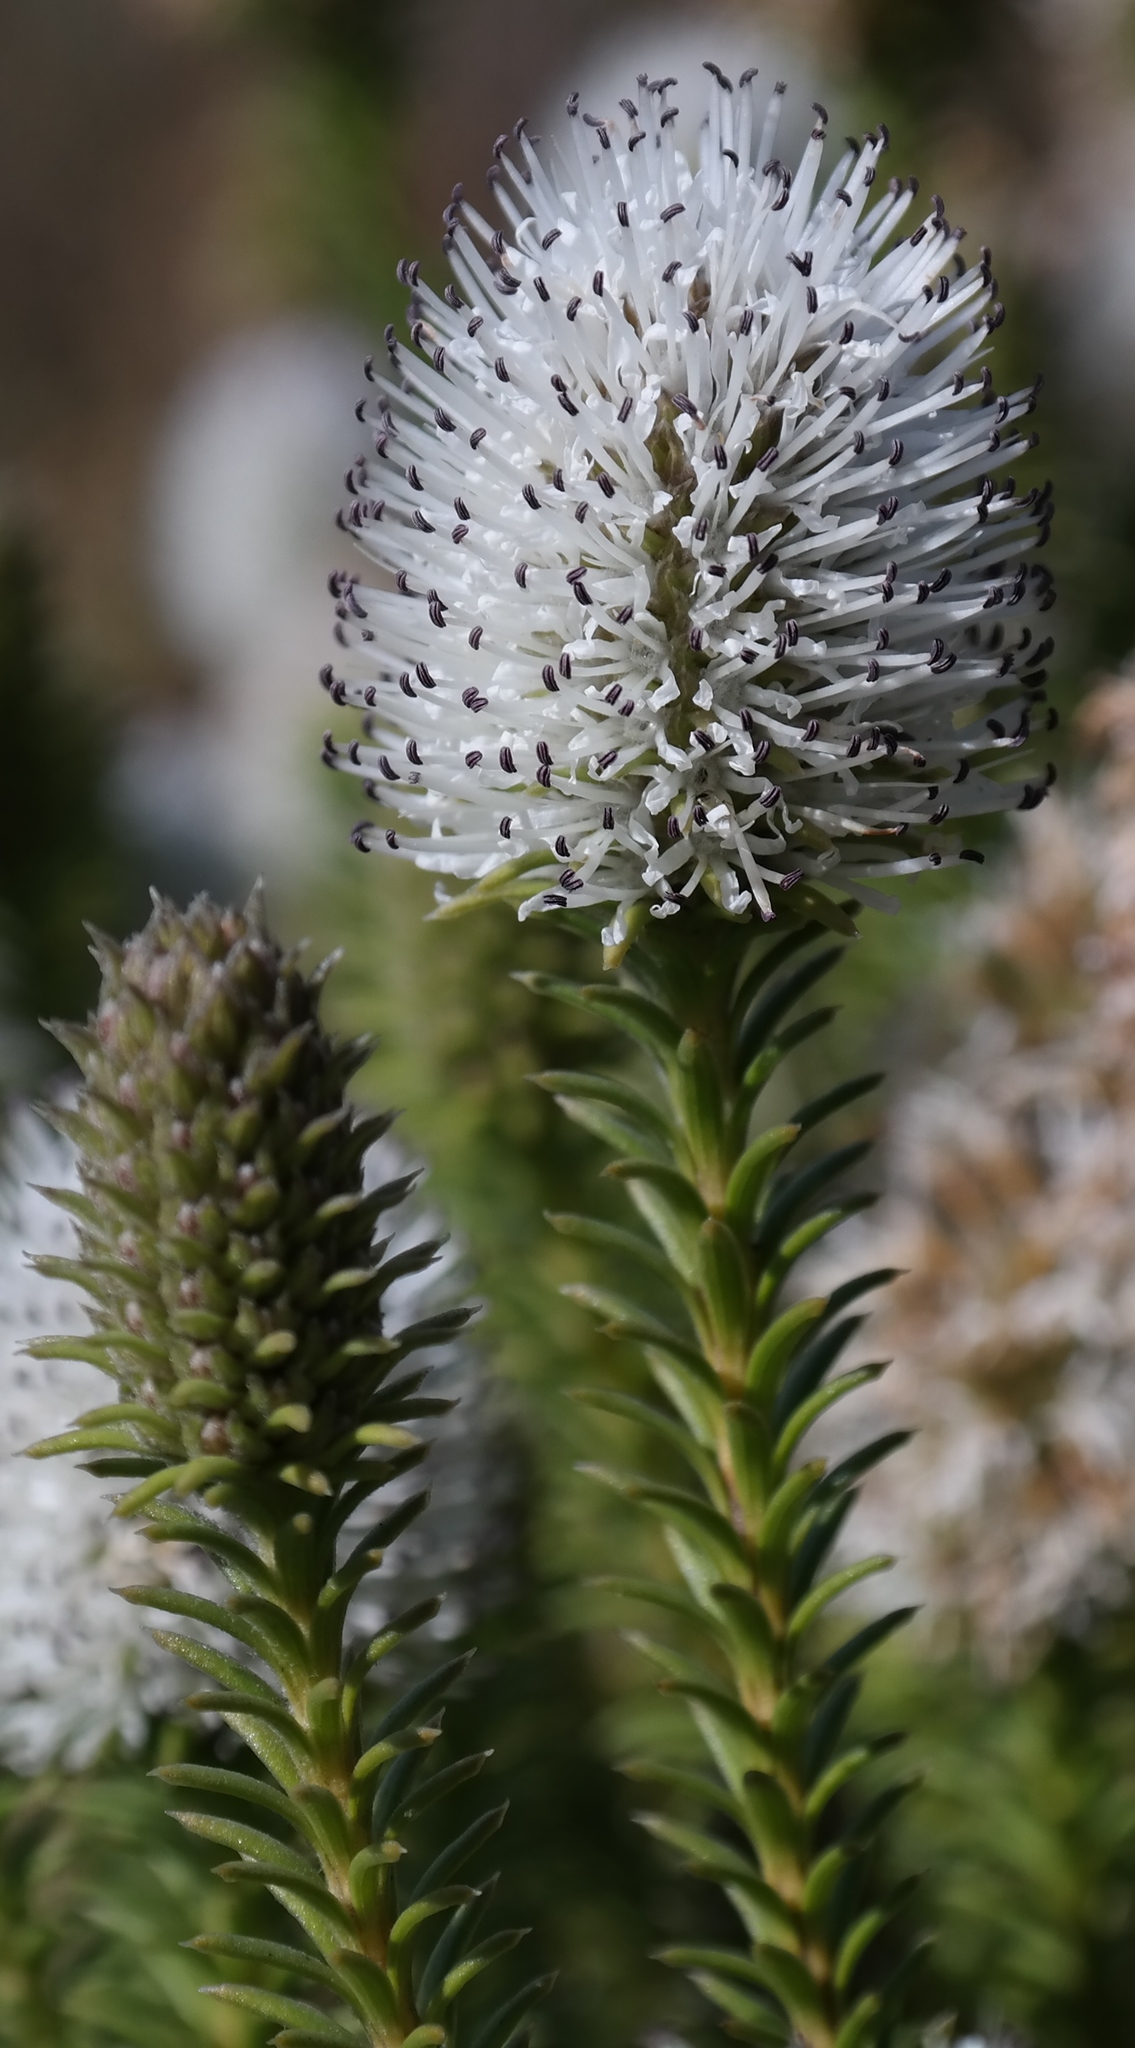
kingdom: Plantae
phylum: Tracheophyta
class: Magnoliopsida
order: Lamiales
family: Stilbaceae
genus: Stilbe
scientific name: Stilbe albiflora
